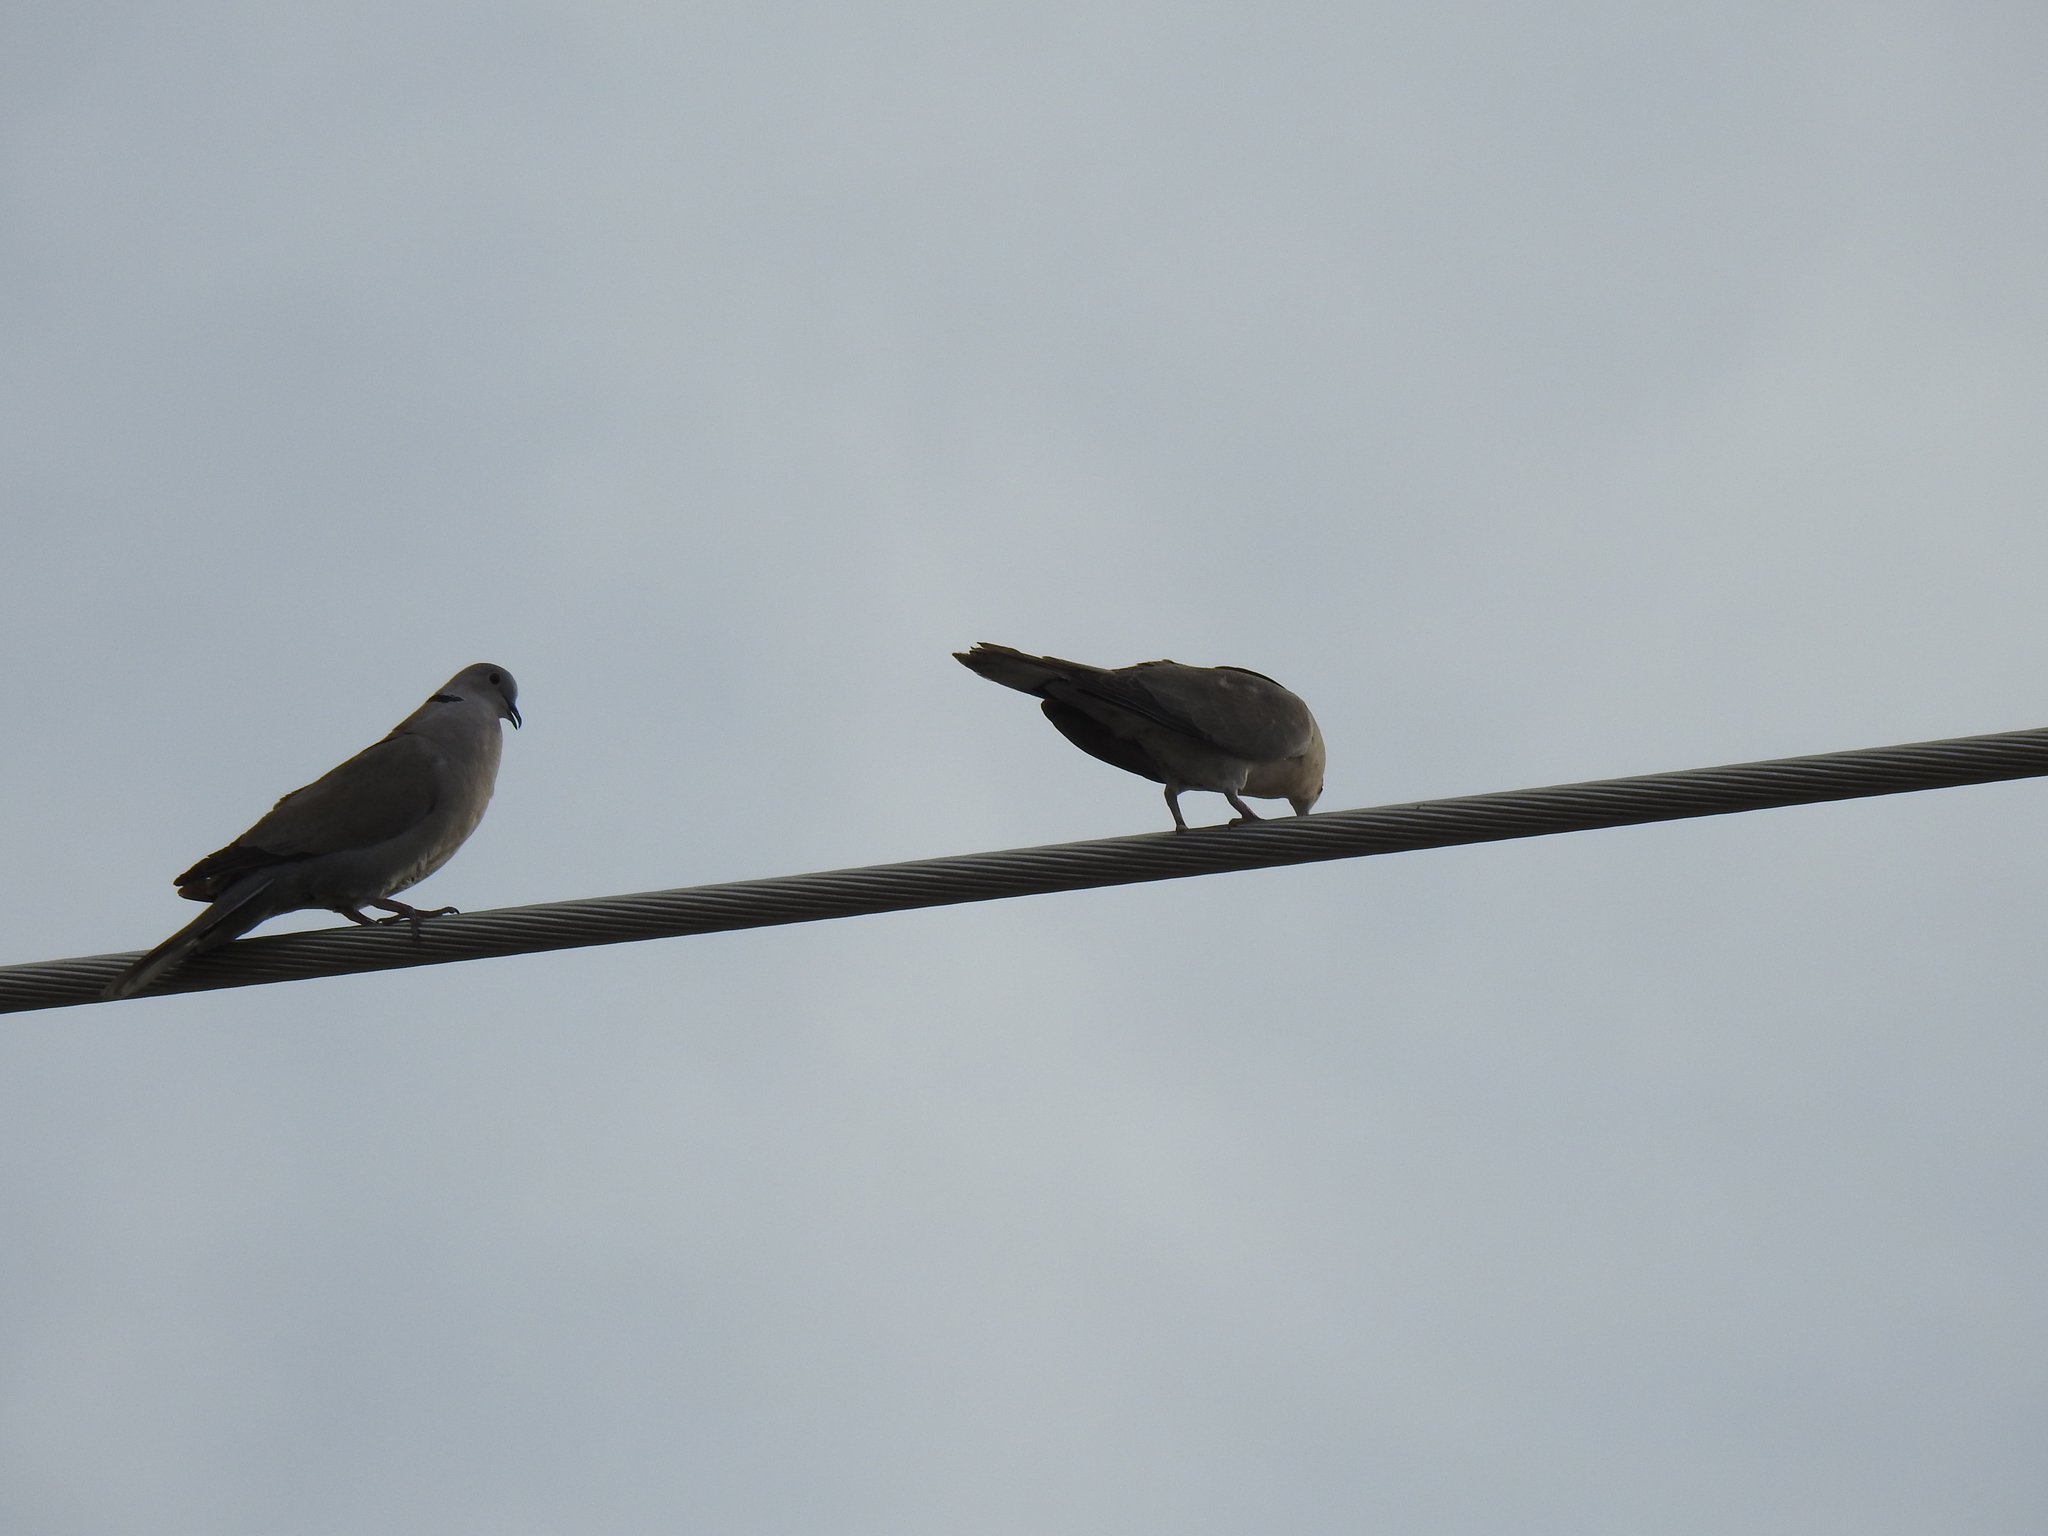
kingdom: Animalia
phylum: Chordata
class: Aves
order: Columbiformes
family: Columbidae
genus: Streptopelia
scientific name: Streptopelia decaocto
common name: Eurasian collared dove
